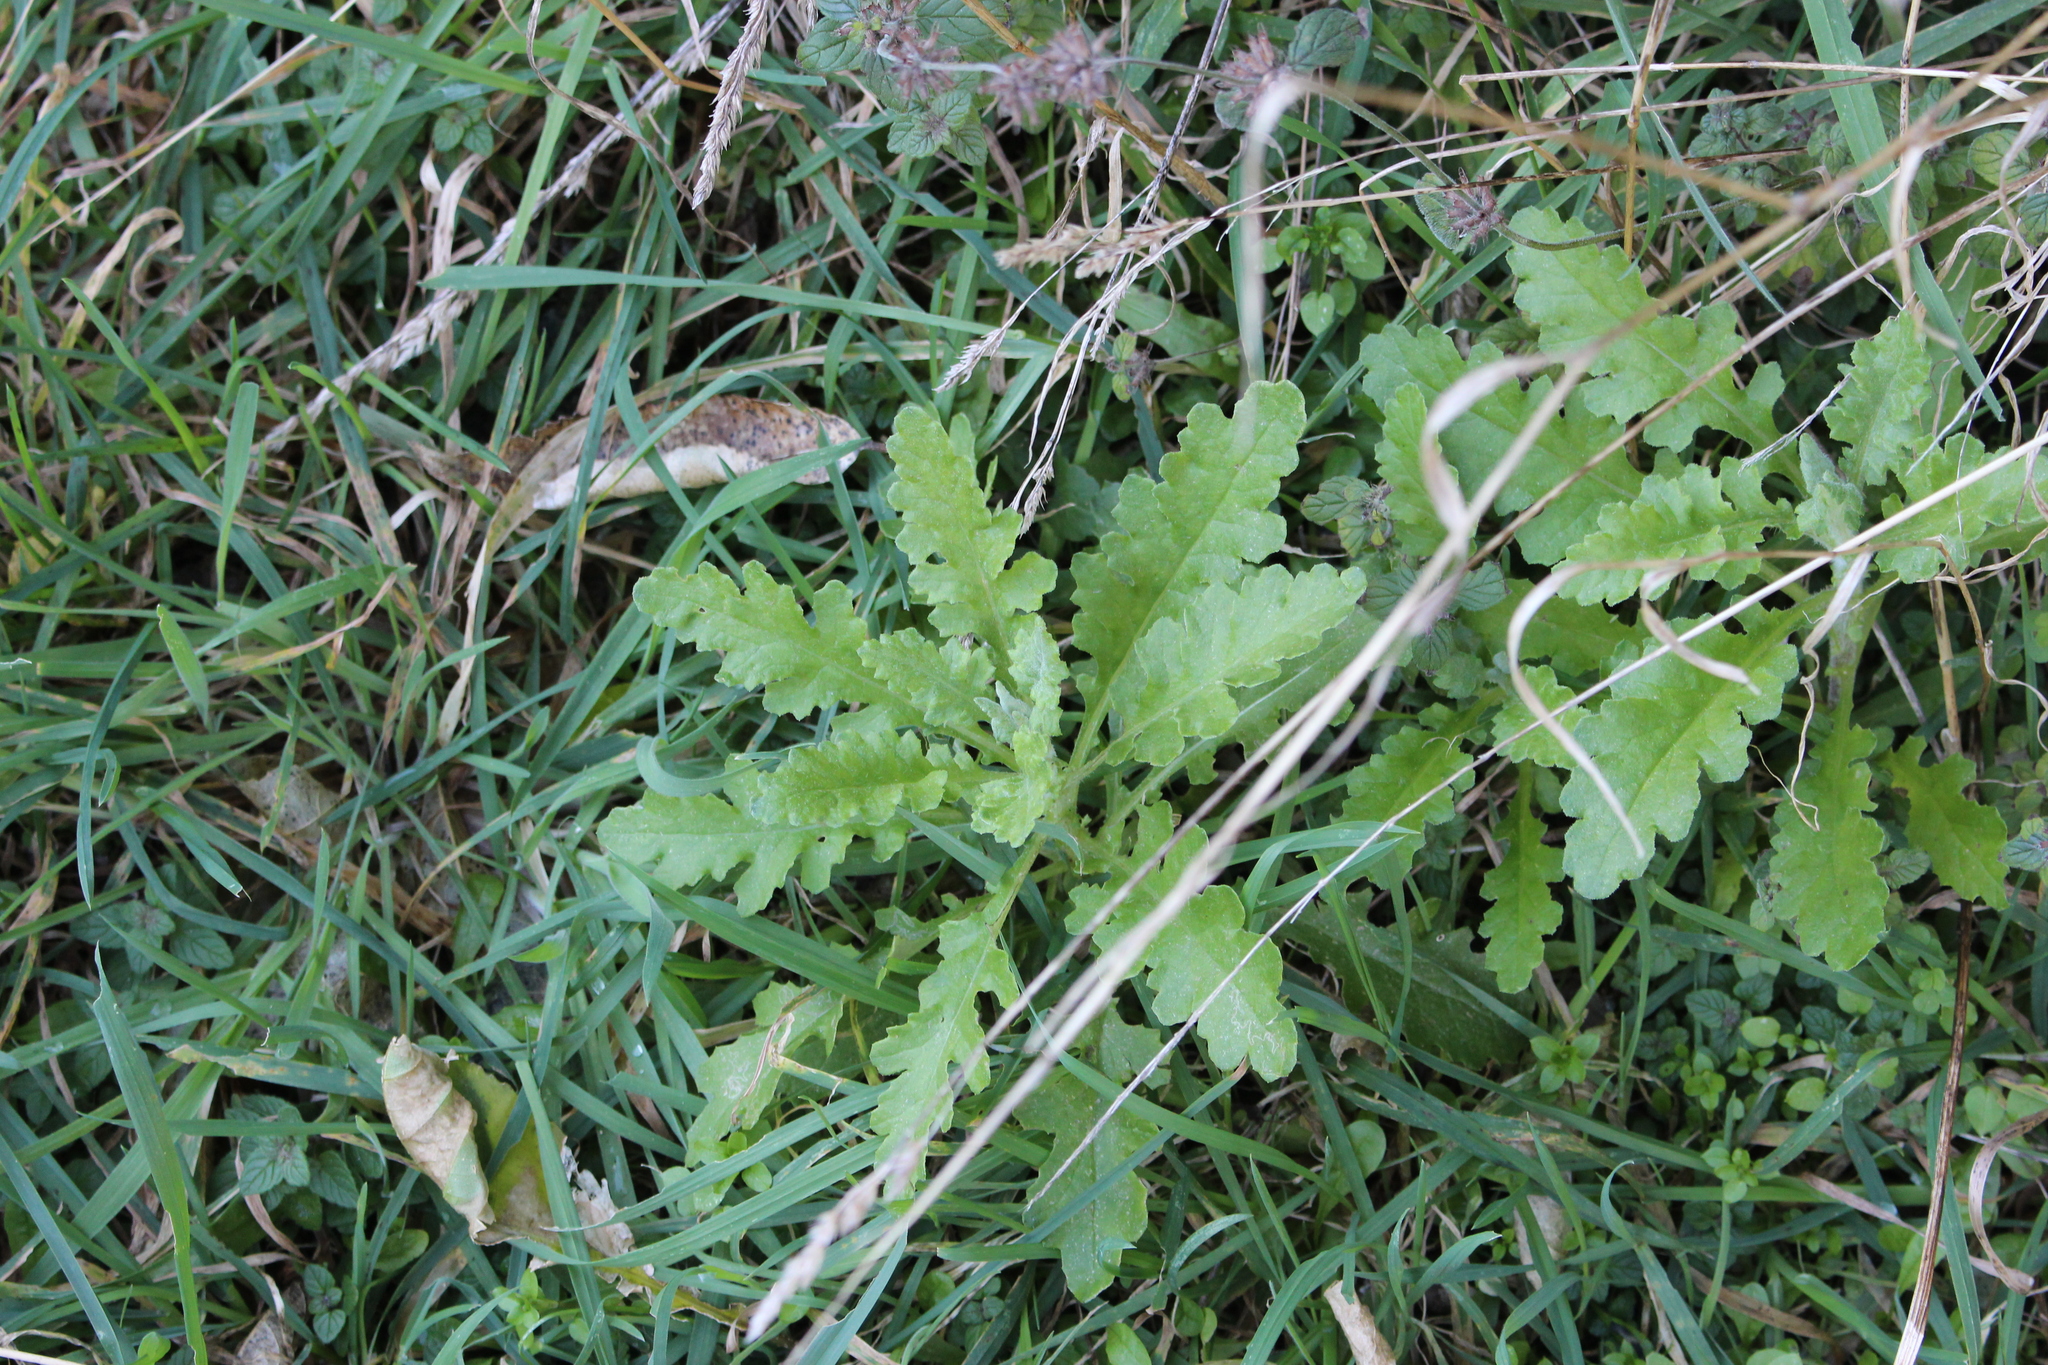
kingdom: Plantae
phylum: Tracheophyta
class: Magnoliopsida
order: Asterales
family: Asteraceae
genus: Senecio
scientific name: Senecio glomeratus
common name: Cutleaf burnweed
